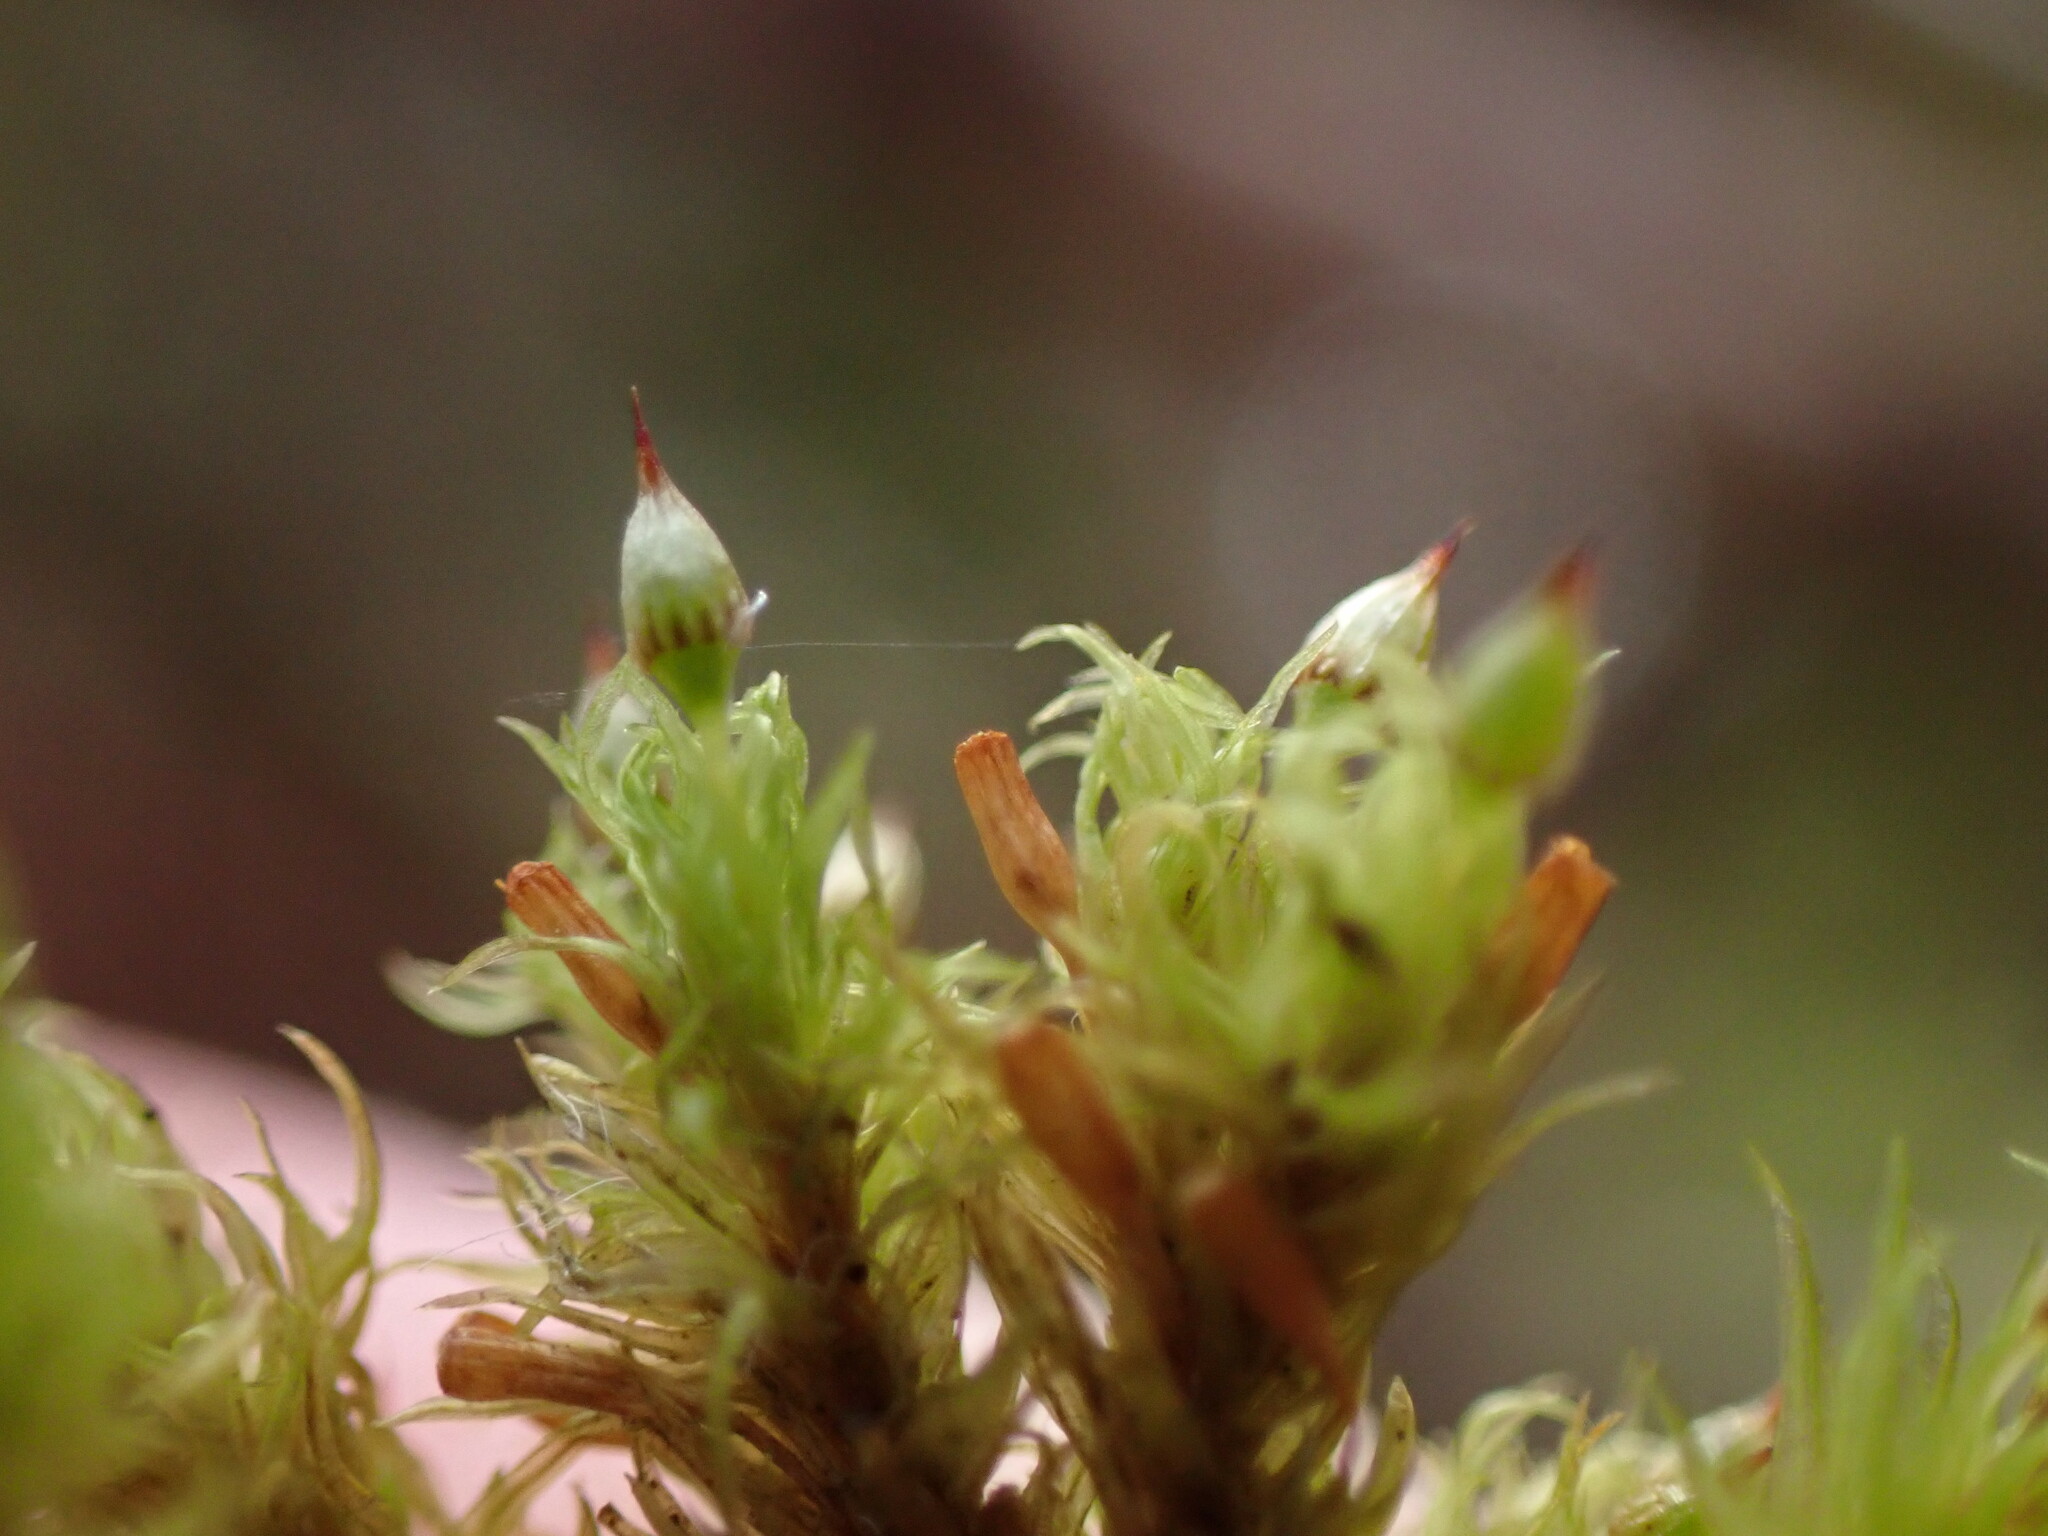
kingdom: Plantae
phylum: Bryophyta
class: Bryopsida
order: Orthotrichales
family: Orthotrichaceae
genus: Orthotrichum
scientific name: Orthotrichum pulchellum
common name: Elegant bristle-moss
